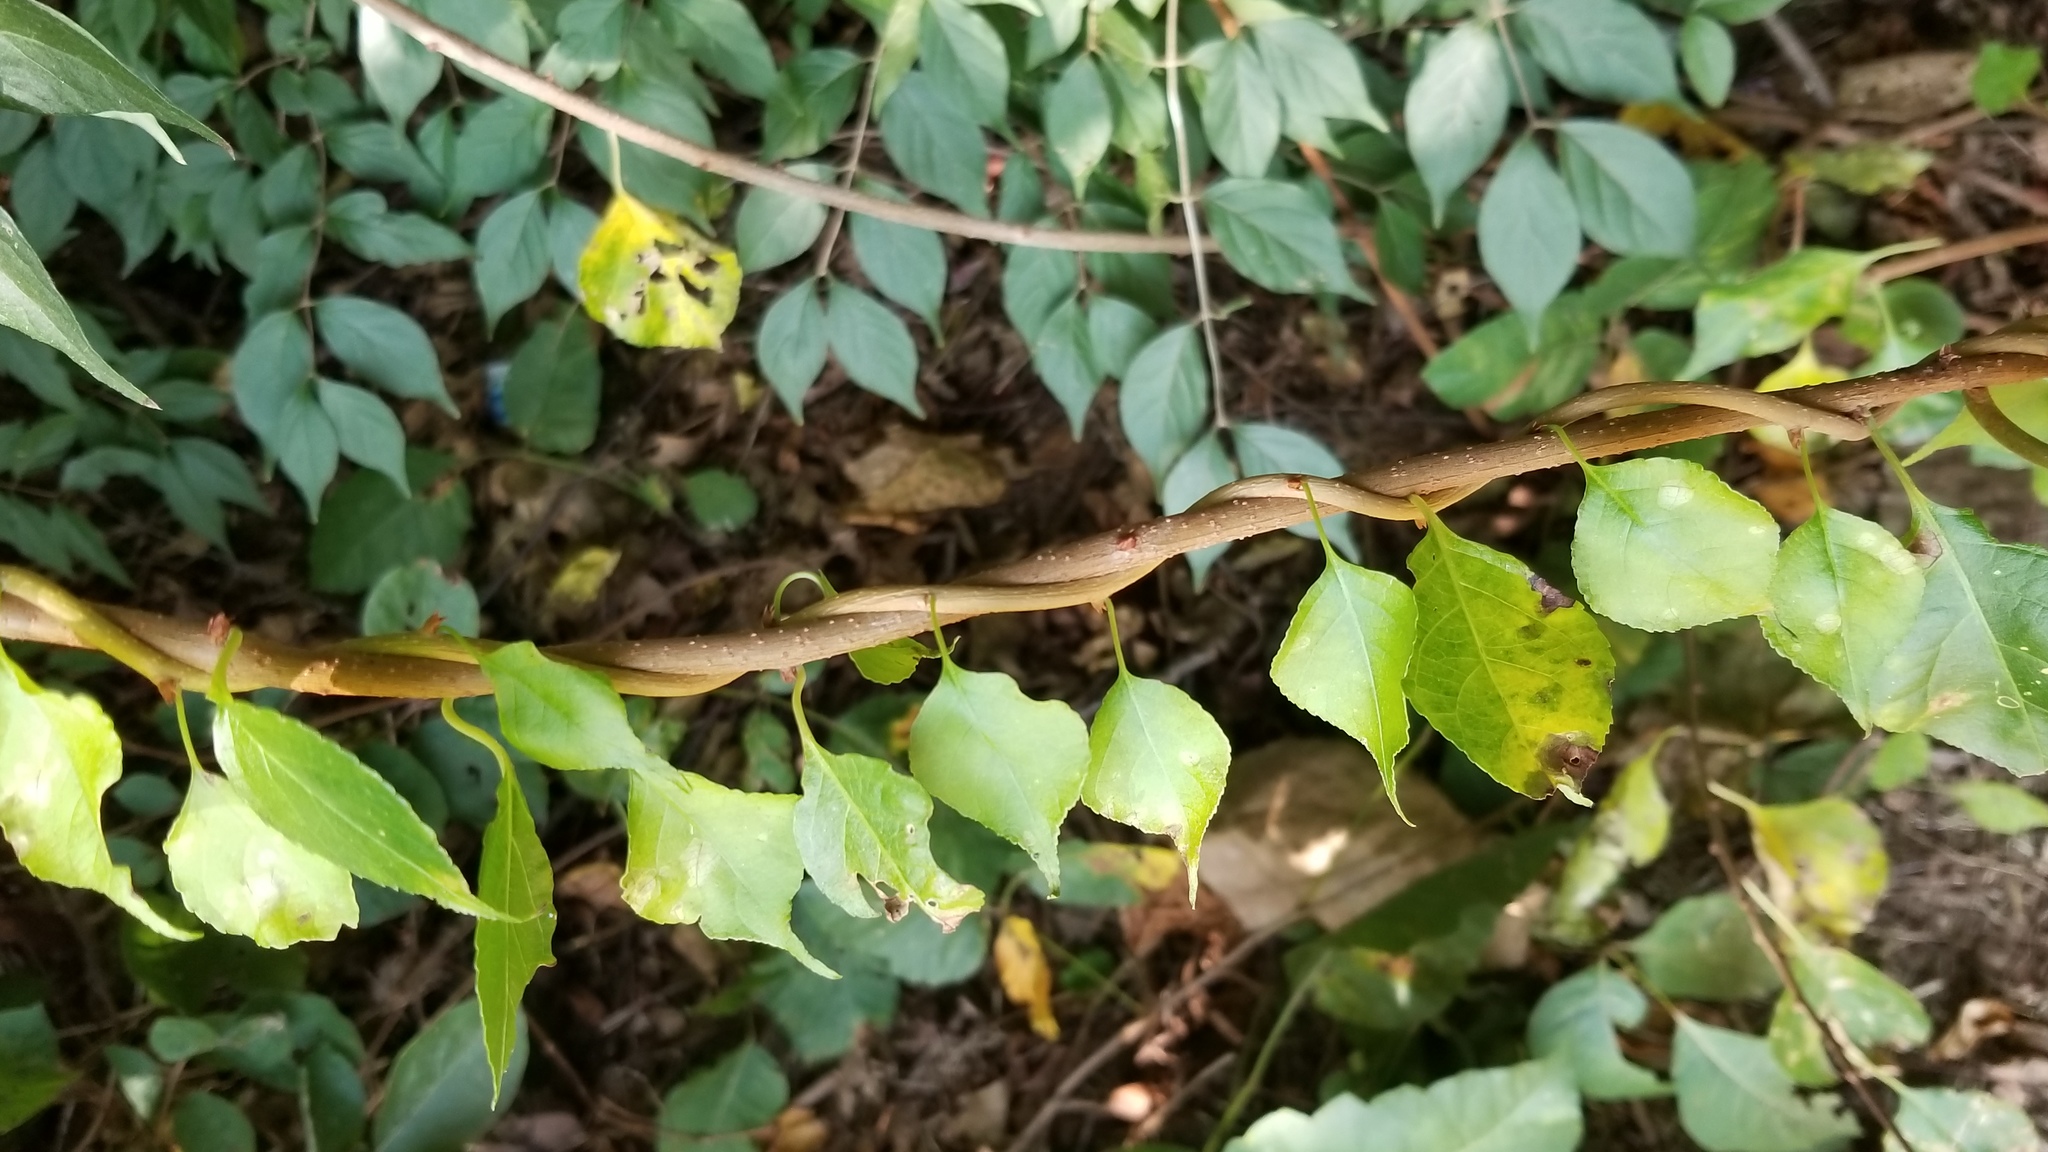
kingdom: Plantae
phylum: Tracheophyta
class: Magnoliopsida
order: Celastrales
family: Celastraceae
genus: Celastrus
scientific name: Celastrus orbiculatus
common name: Oriental bittersweet
